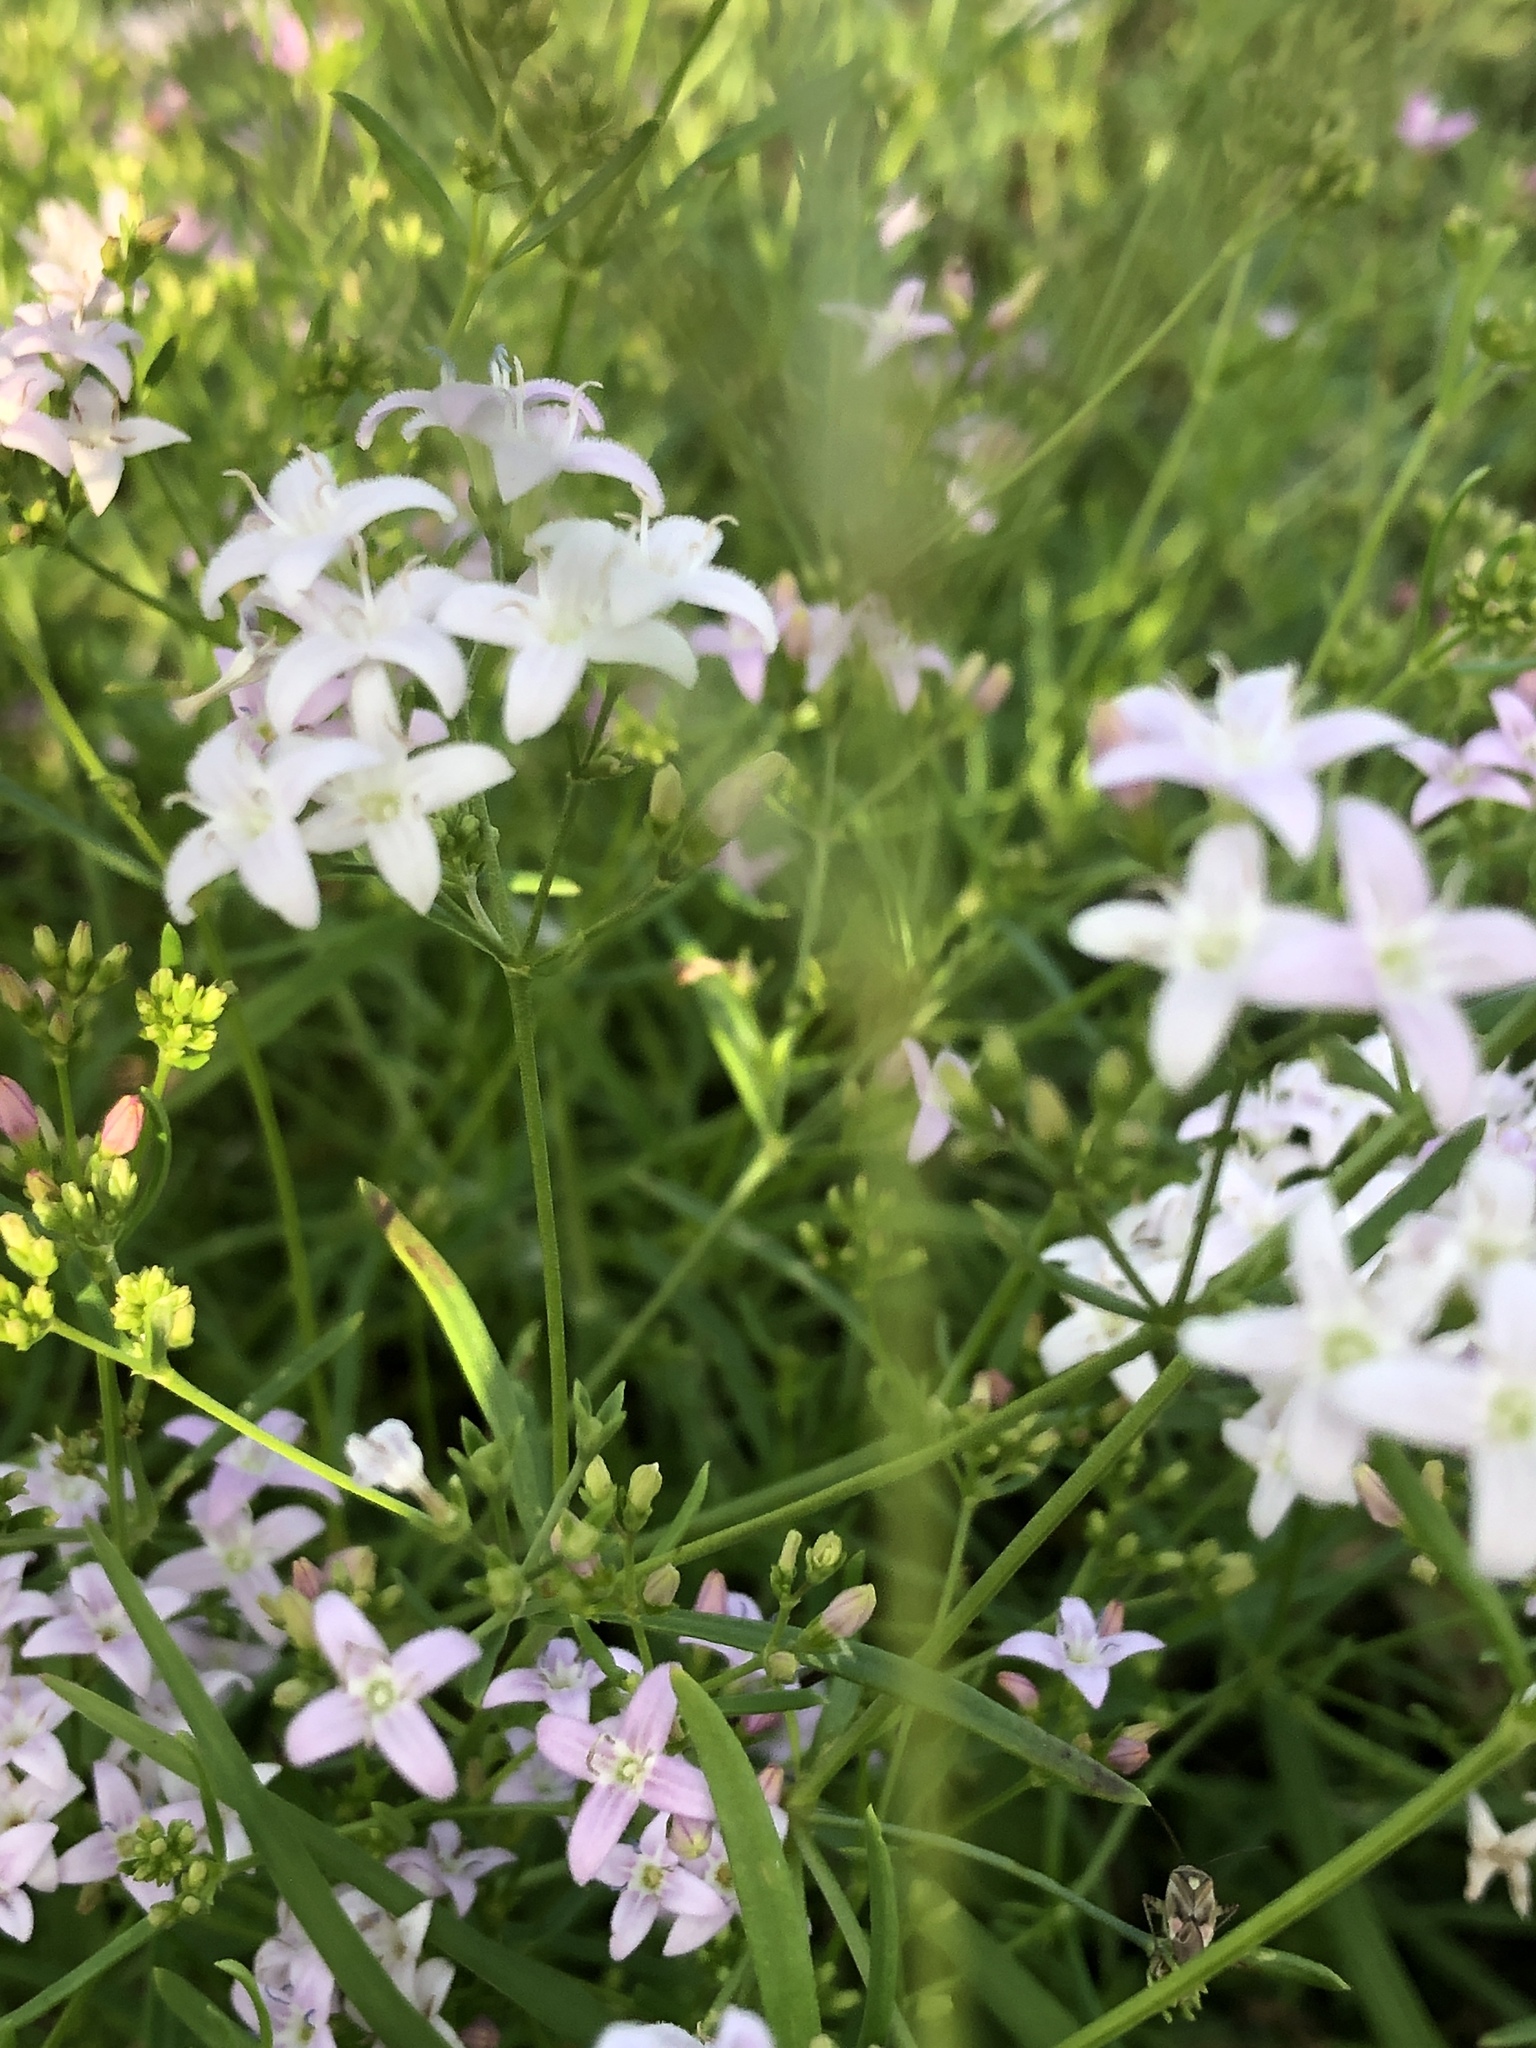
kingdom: Plantae
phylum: Tracheophyta
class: Magnoliopsida
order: Gentianales
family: Rubiaceae
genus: Stenaria
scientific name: Stenaria nigricans
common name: Diamondflowers
